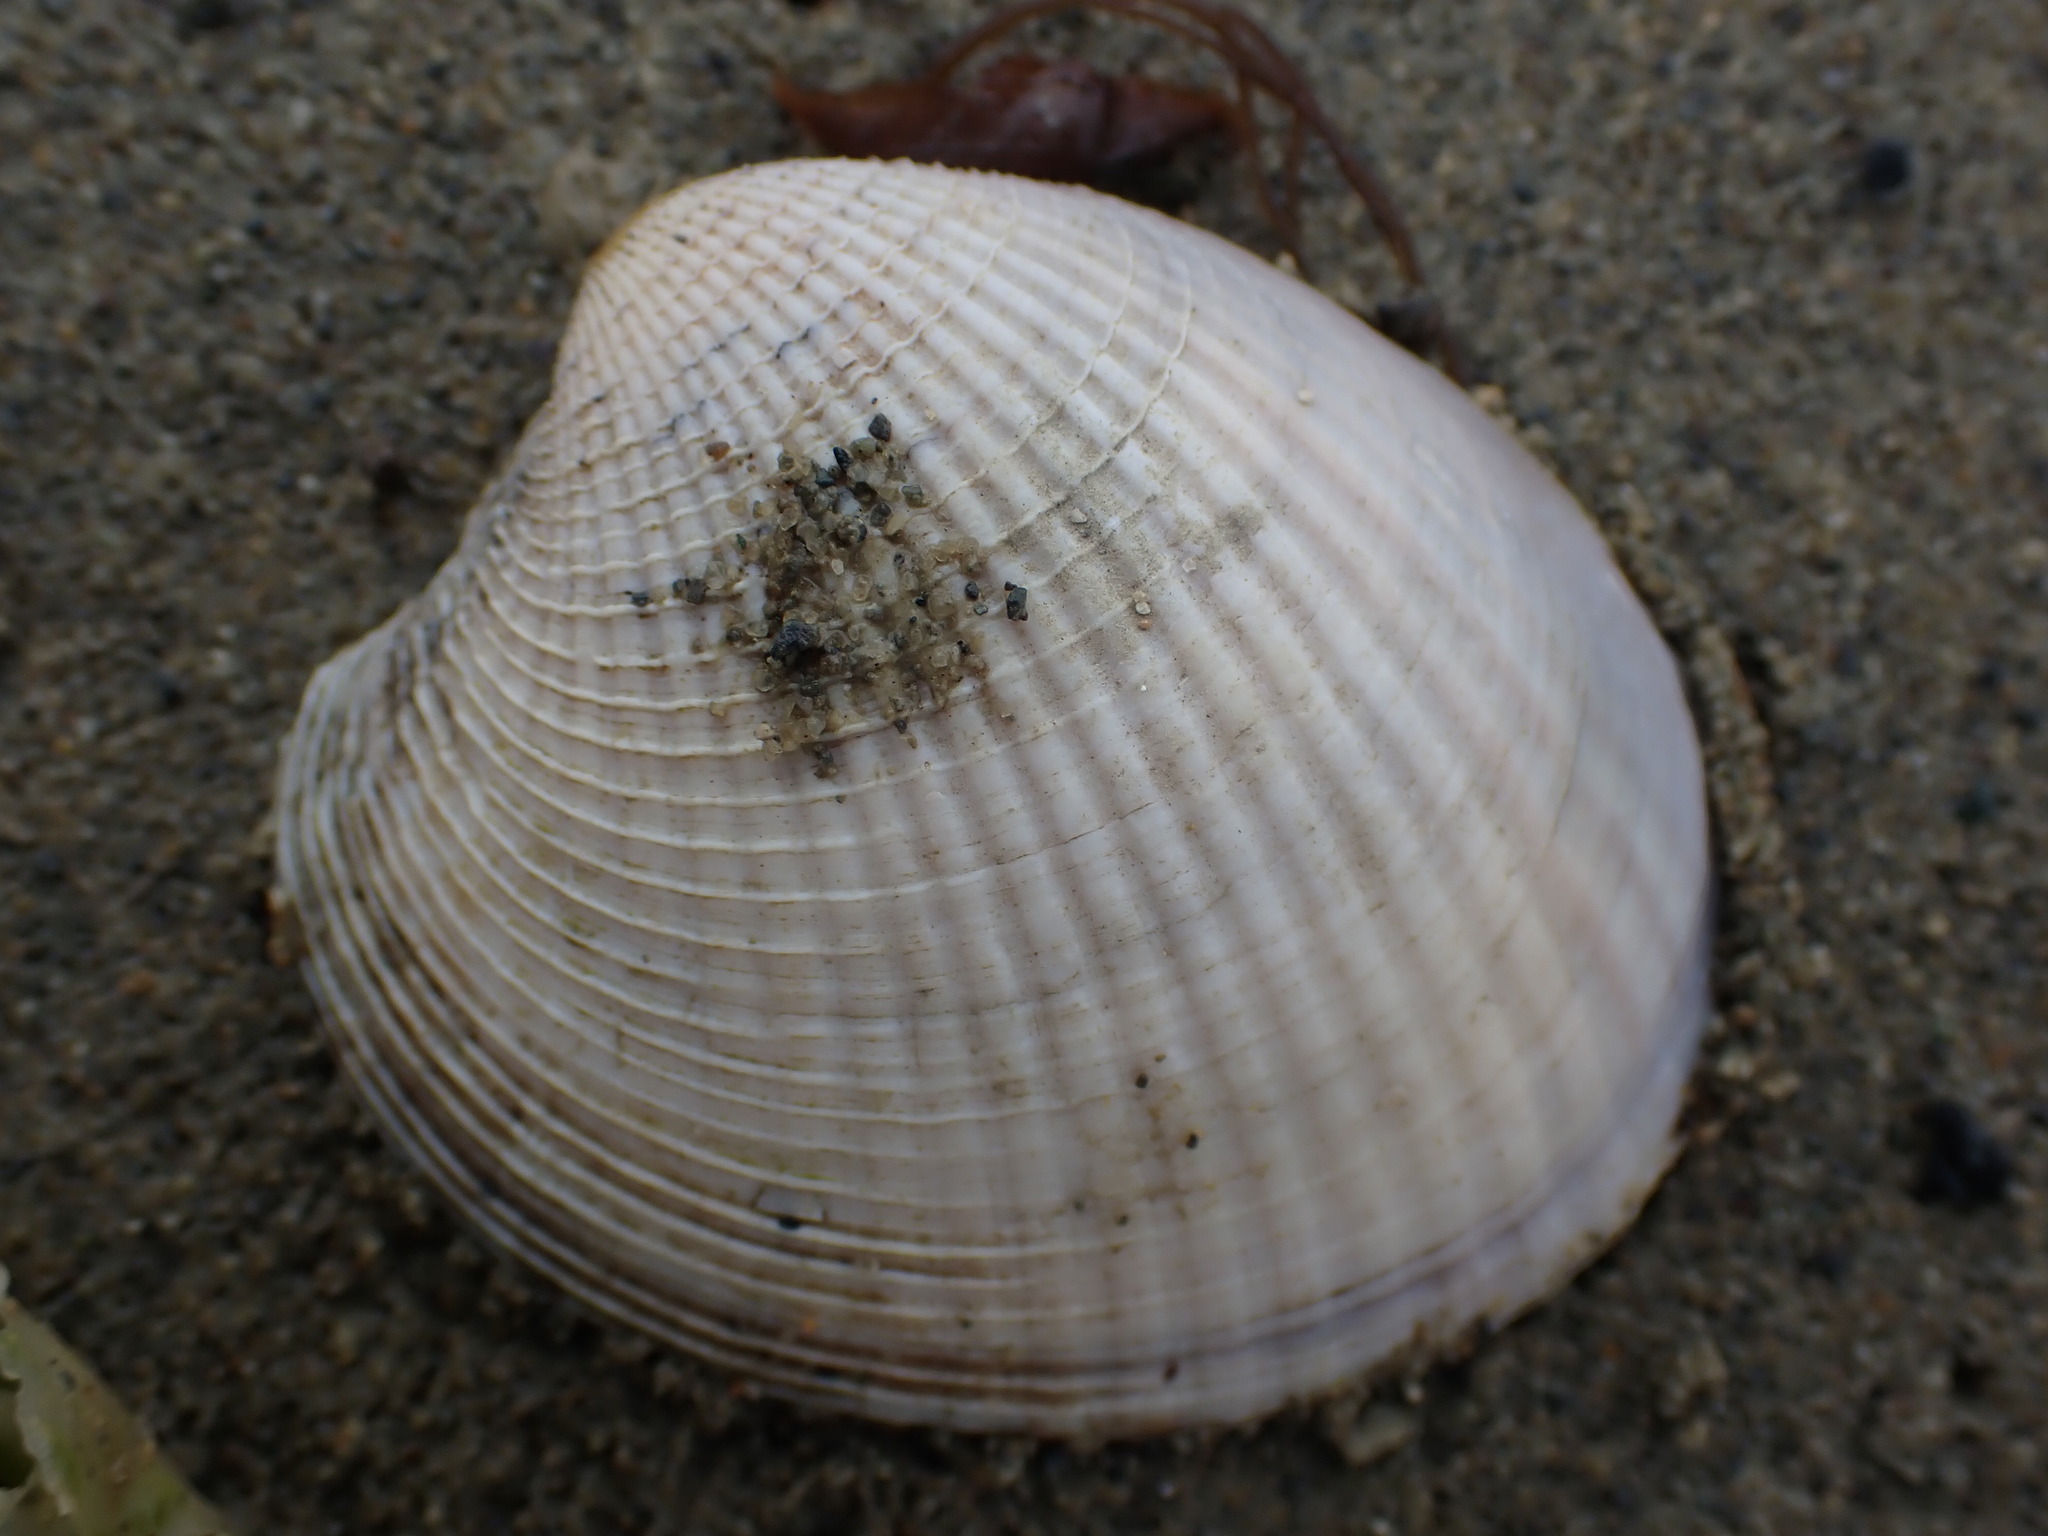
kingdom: Animalia
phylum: Mollusca
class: Bivalvia
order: Venerida
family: Veneridae
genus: Austrovenus
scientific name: Austrovenus stutchburyi
